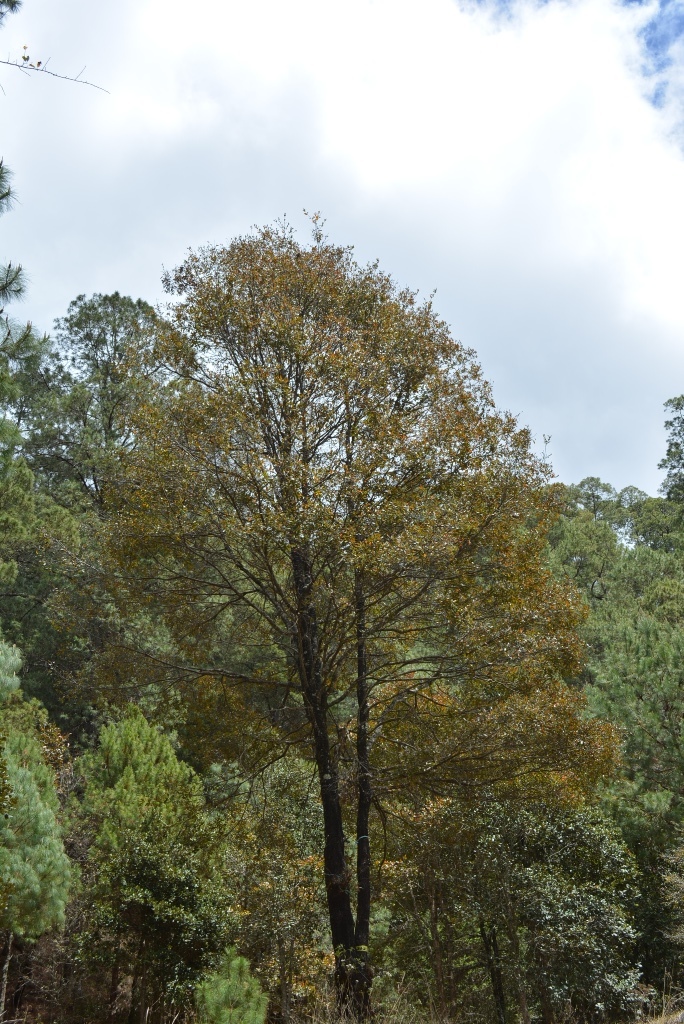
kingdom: Plantae
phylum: Tracheophyta
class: Magnoliopsida
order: Fagales
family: Fagaceae
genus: Quercus
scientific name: Quercus crispipilis
